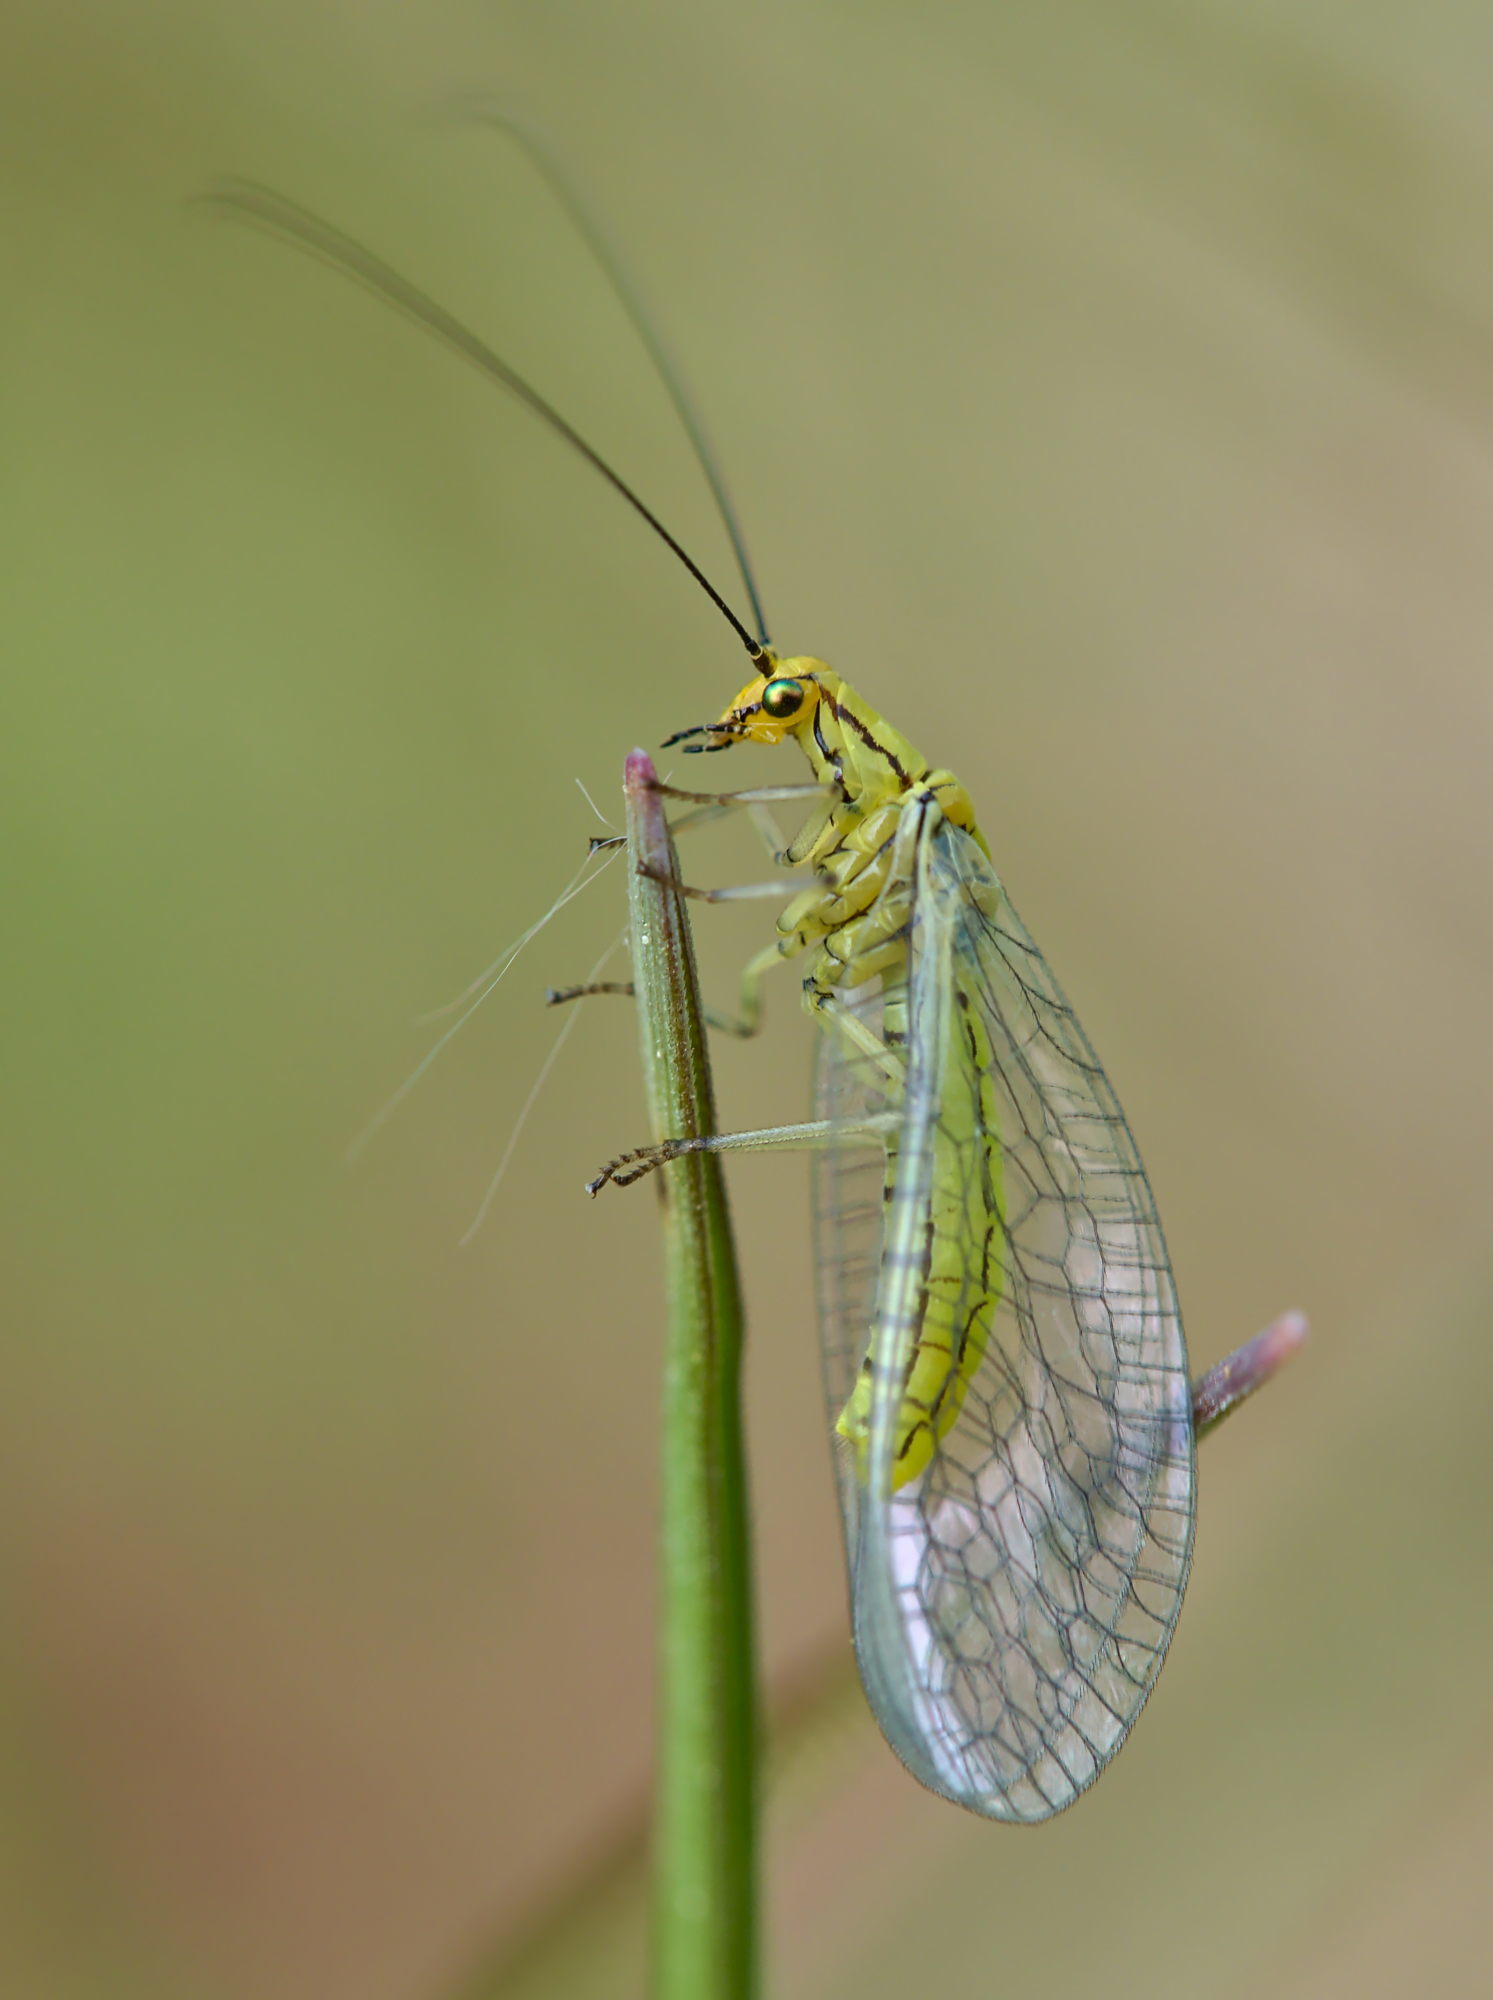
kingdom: Animalia
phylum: Arthropoda
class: Insecta
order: Neuroptera
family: Chrysopidae
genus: Hypochrysa
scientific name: Hypochrysa elegans
